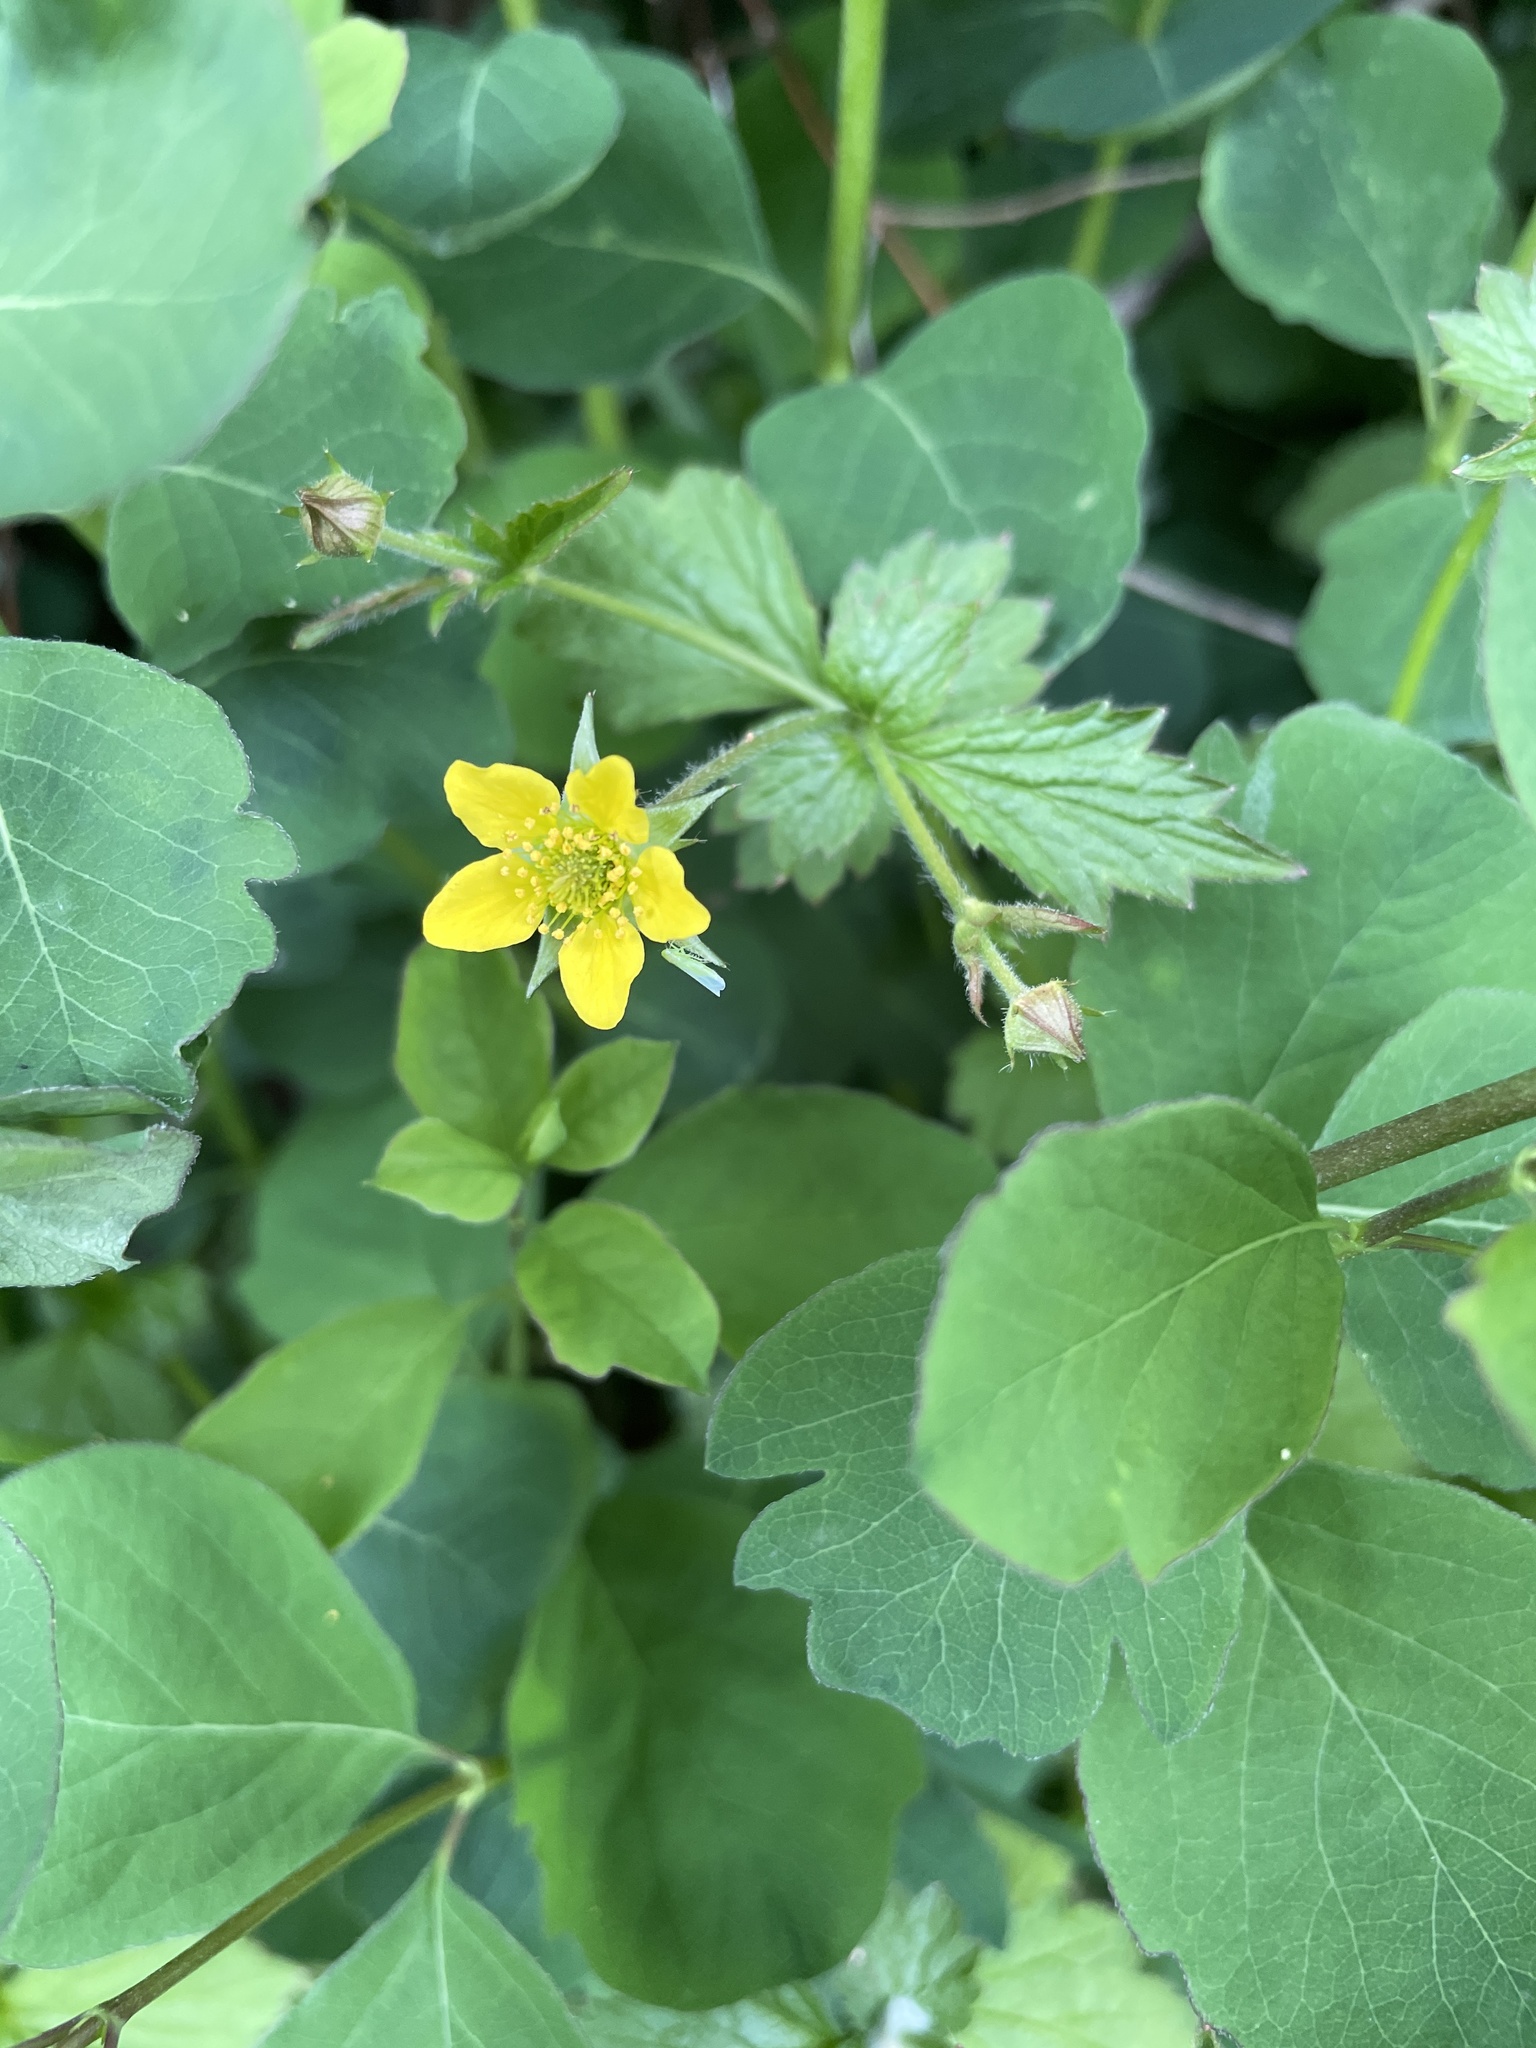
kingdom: Plantae
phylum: Tracheophyta
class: Magnoliopsida
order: Rosales
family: Rosaceae
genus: Geum
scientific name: Geum urbanum
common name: Wood avens
